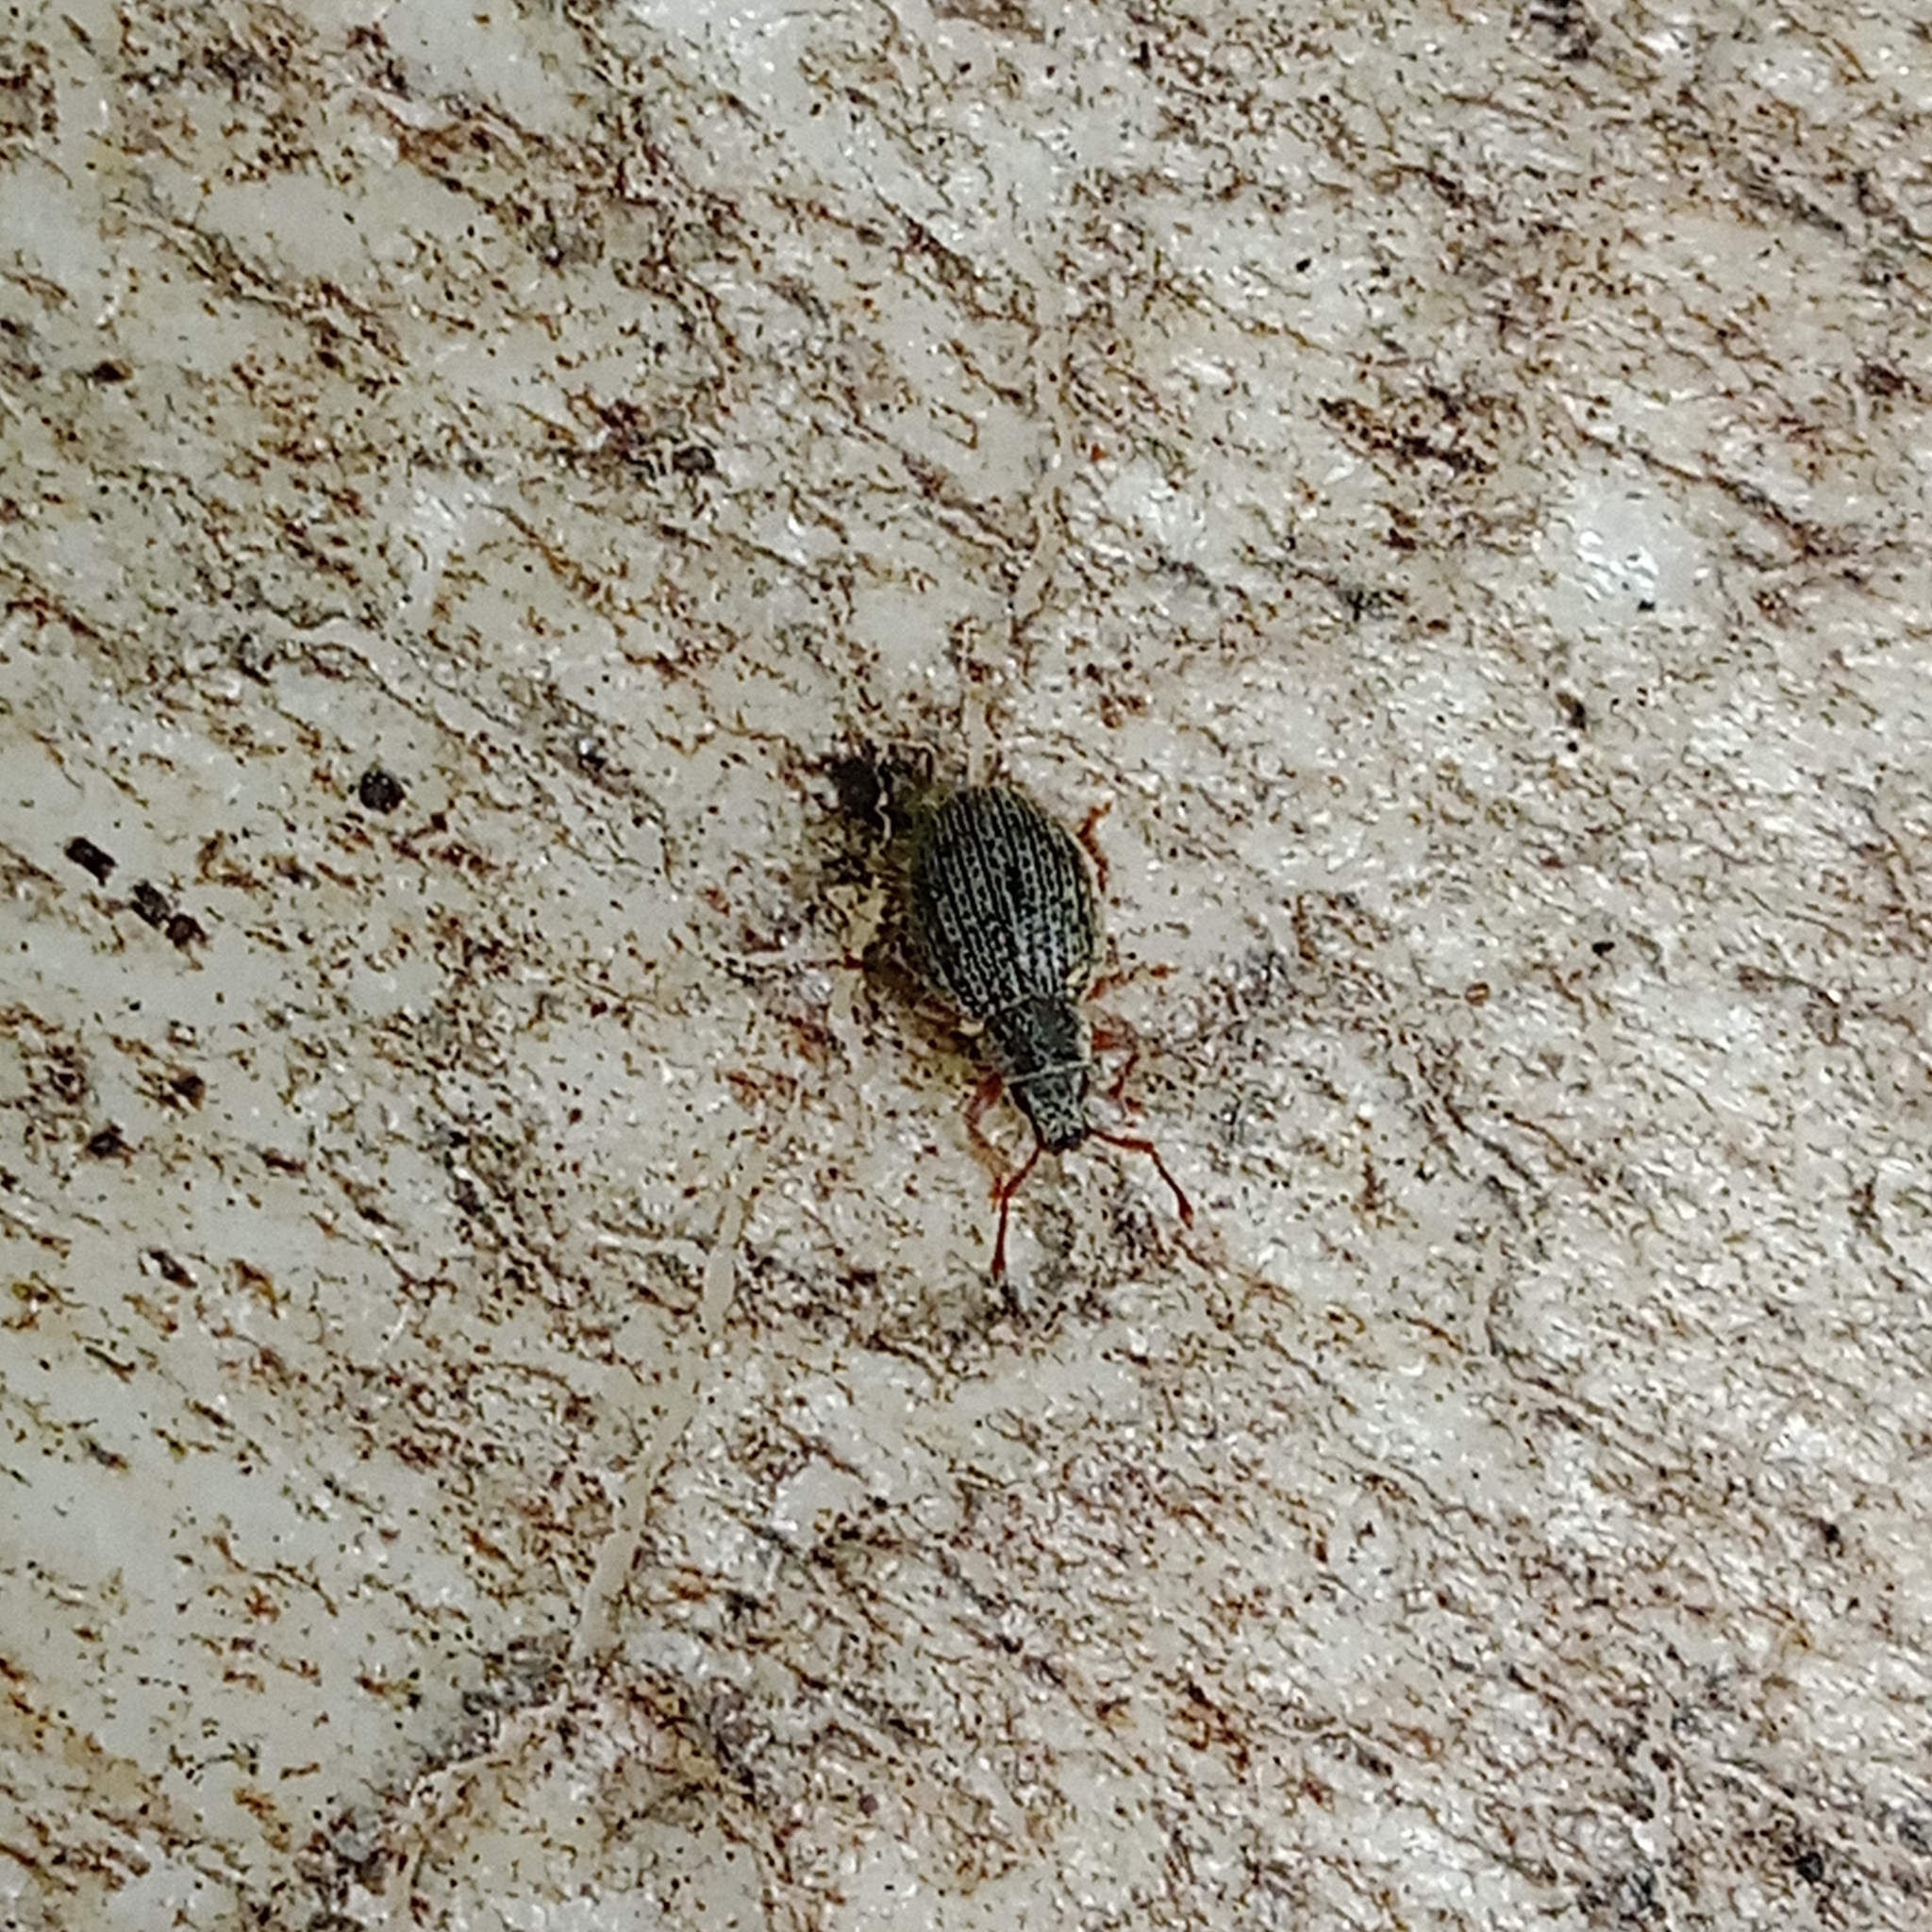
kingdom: Animalia
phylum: Arthropoda
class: Insecta
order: Coleoptera
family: Curculionidae
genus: Brachysomus
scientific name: Brachysomus echinatus
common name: Weevil
